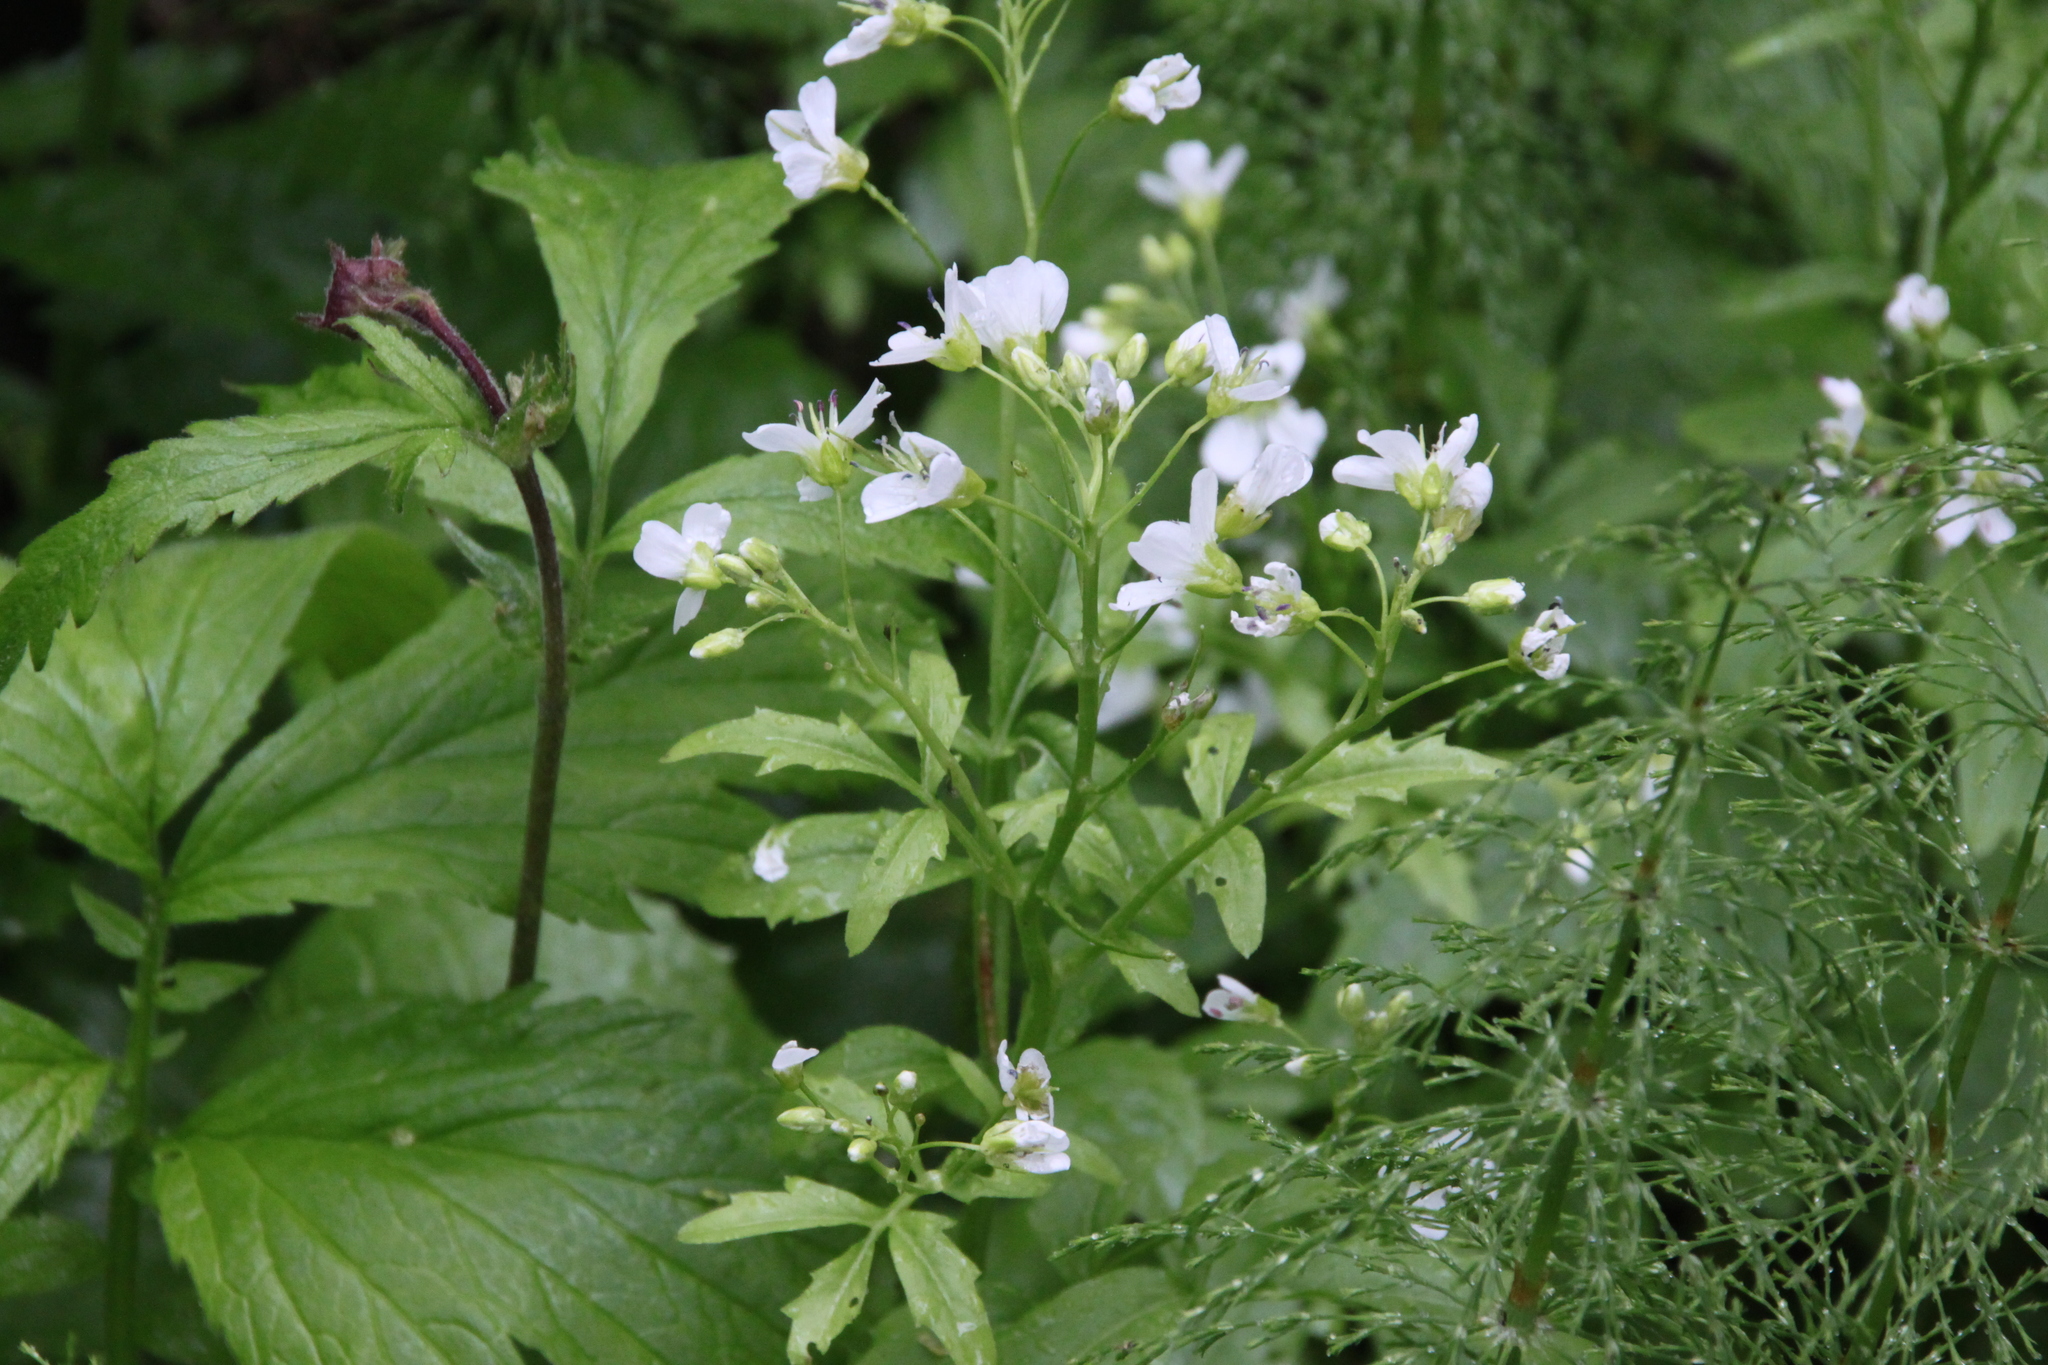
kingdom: Plantae
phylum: Tracheophyta
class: Magnoliopsida
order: Brassicales
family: Brassicaceae
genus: Cardamine
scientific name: Cardamine amara
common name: Large bitter-cress
